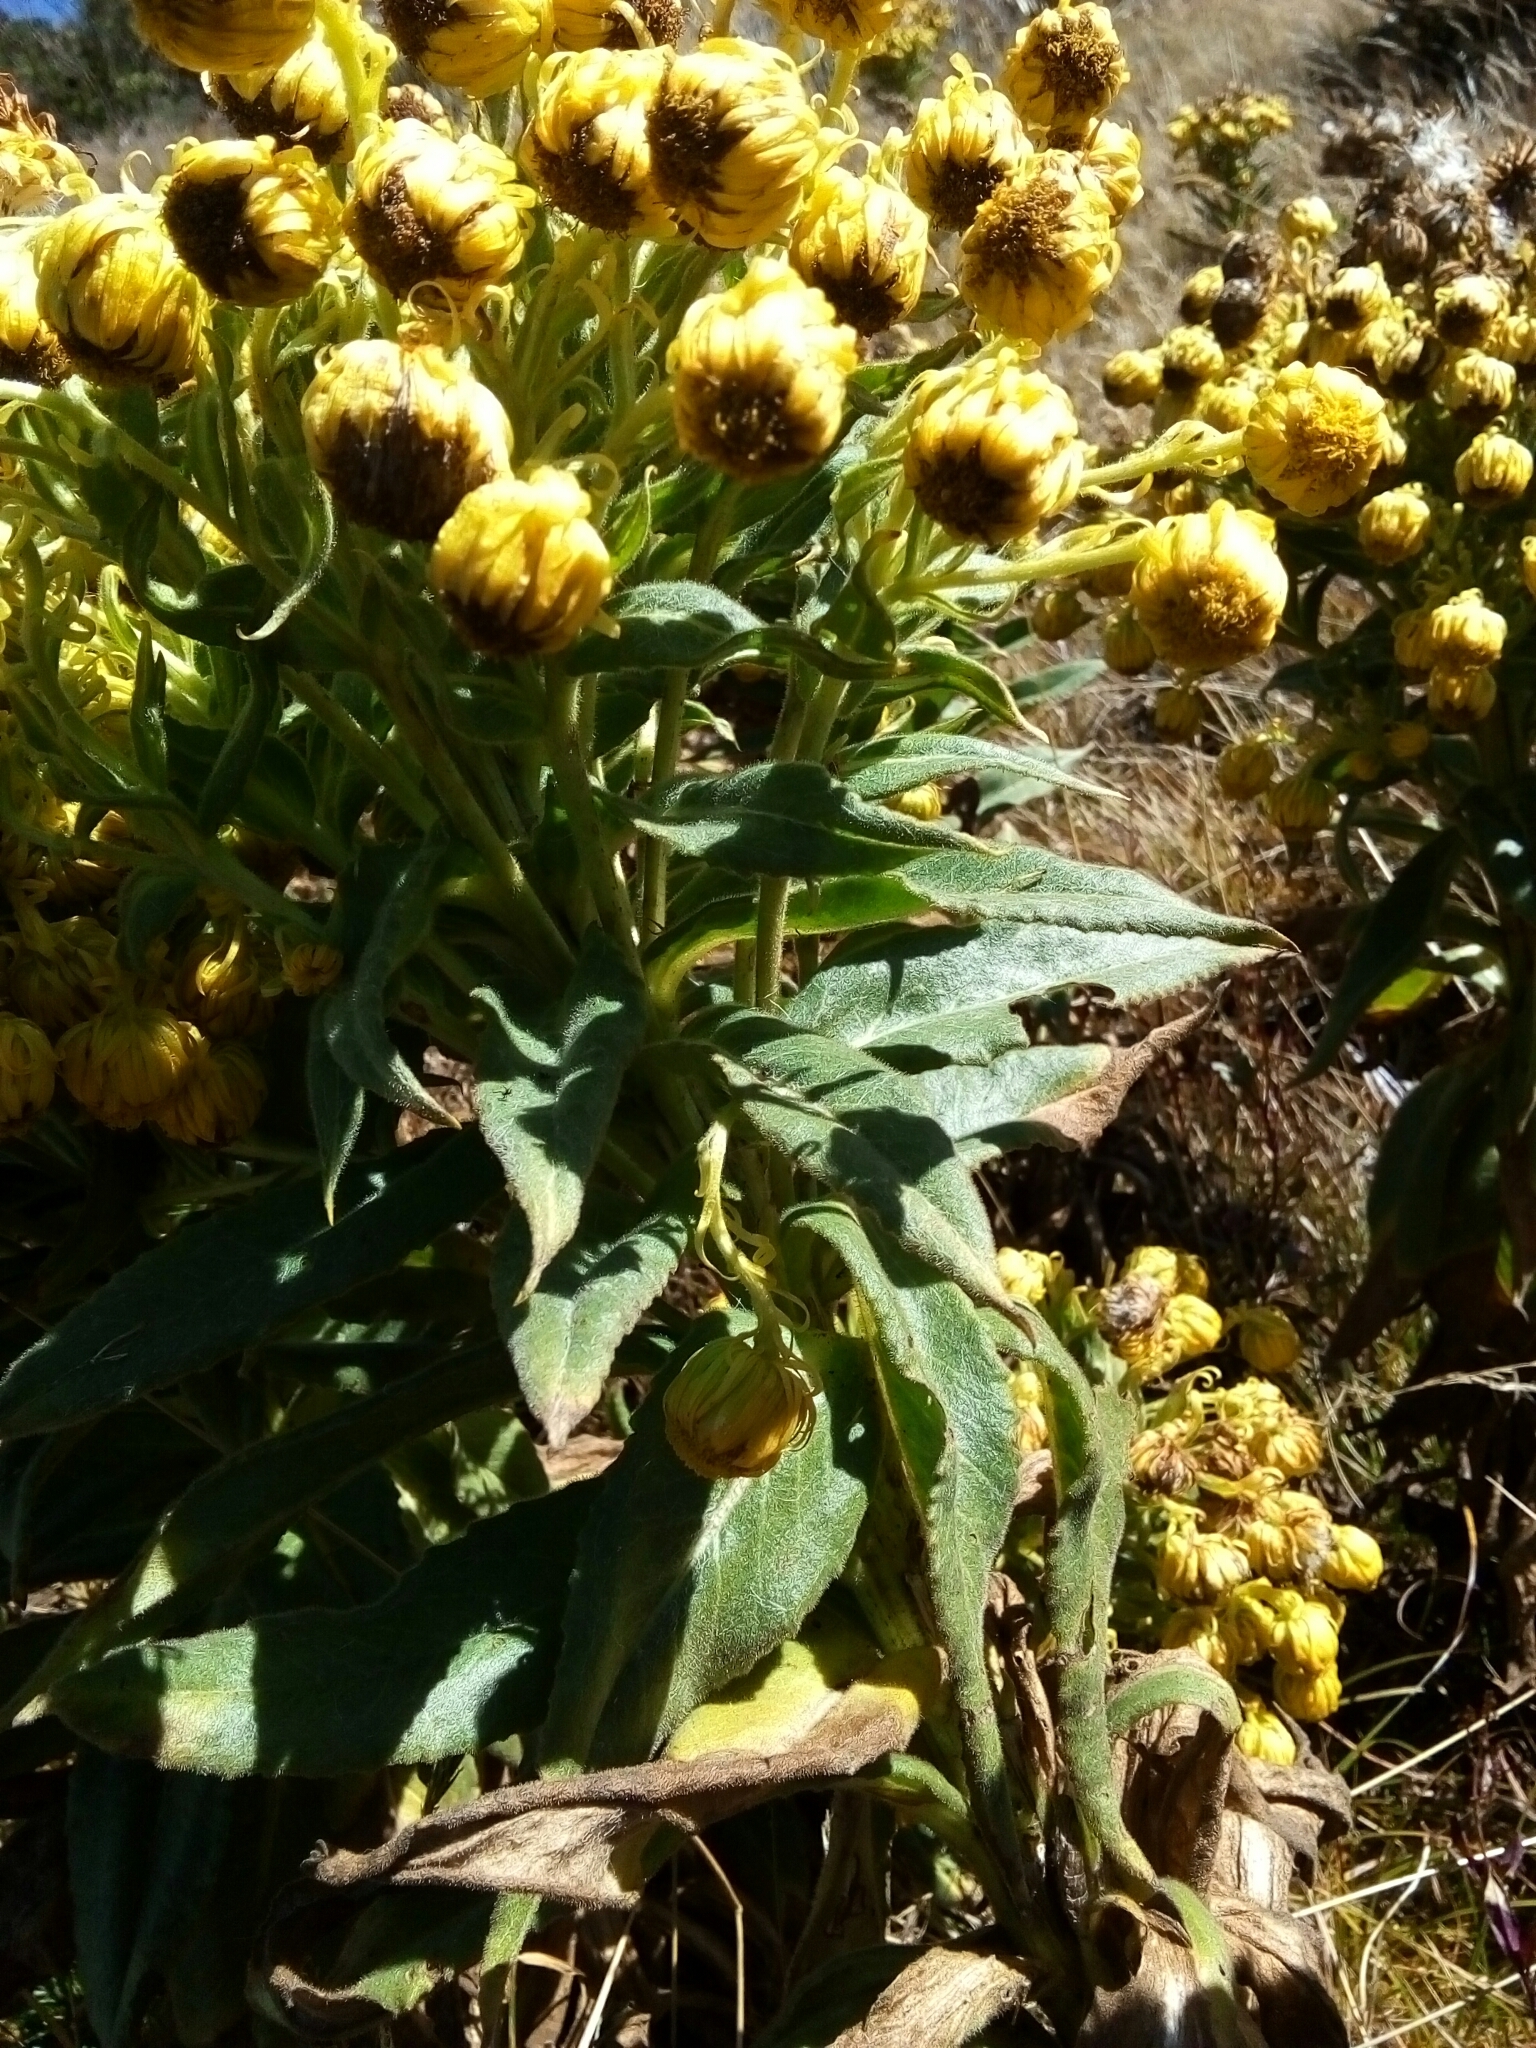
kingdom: Plantae
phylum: Tracheophyta
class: Magnoliopsida
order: Asterales
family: Asteraceae
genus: Senecio
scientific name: Senecio pascuiandinus
